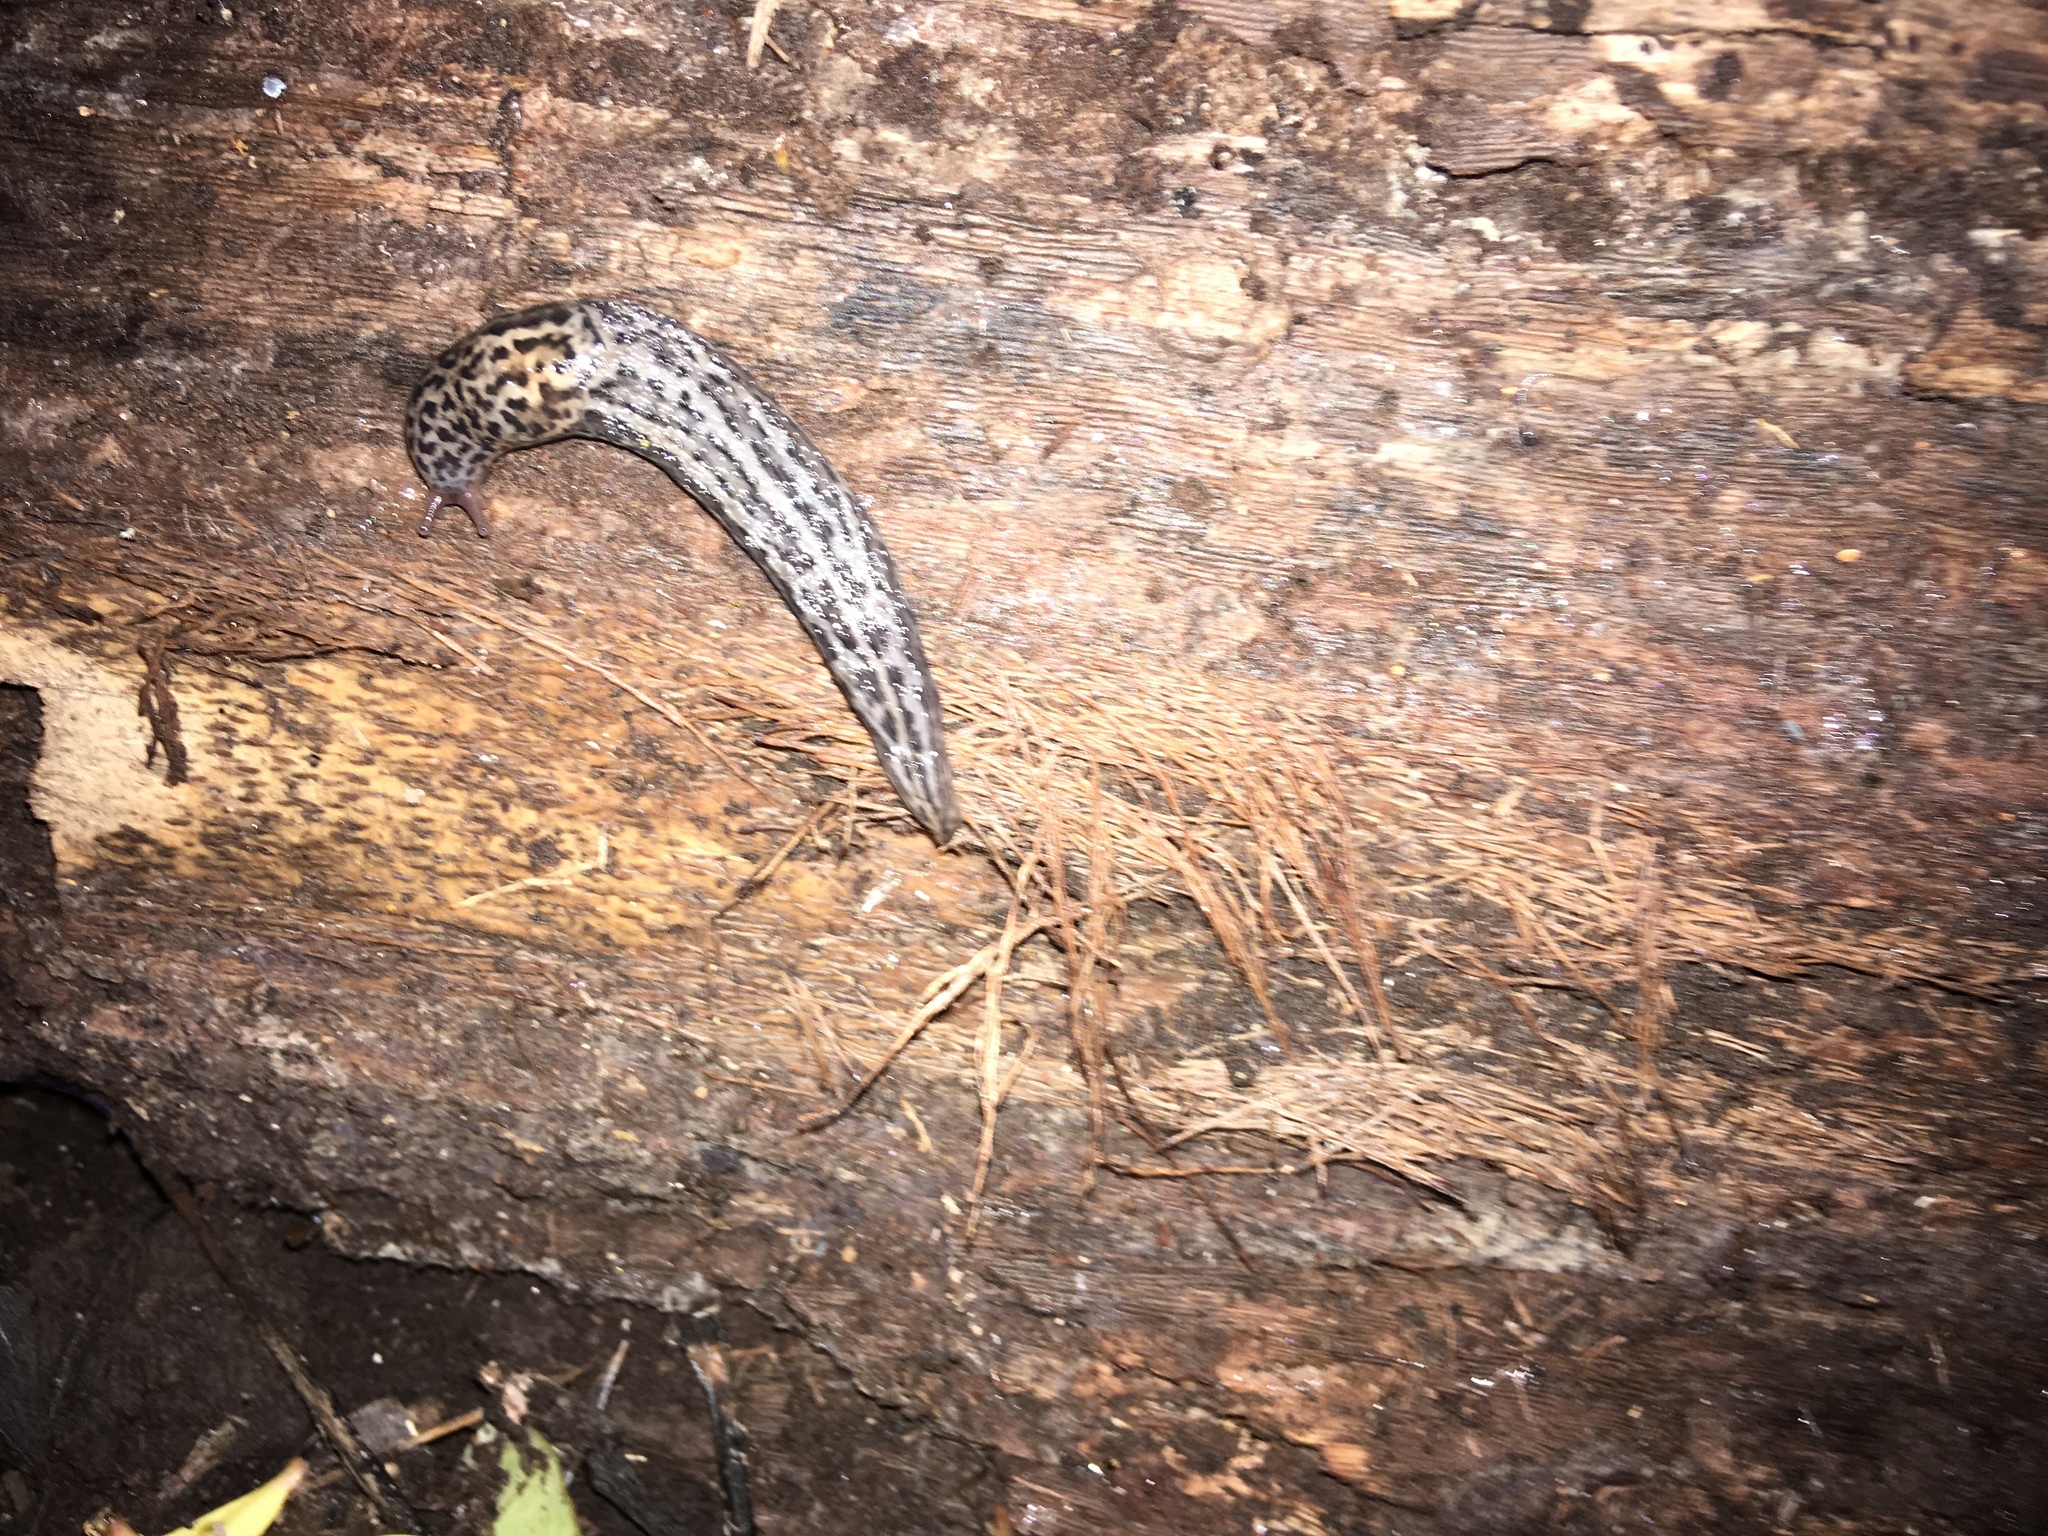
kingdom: Animalia
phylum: Mollusca
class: Gastropoda
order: Stylommatophora
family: Limacidae
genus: Limax
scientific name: Limax maximus
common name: Great grey slug
